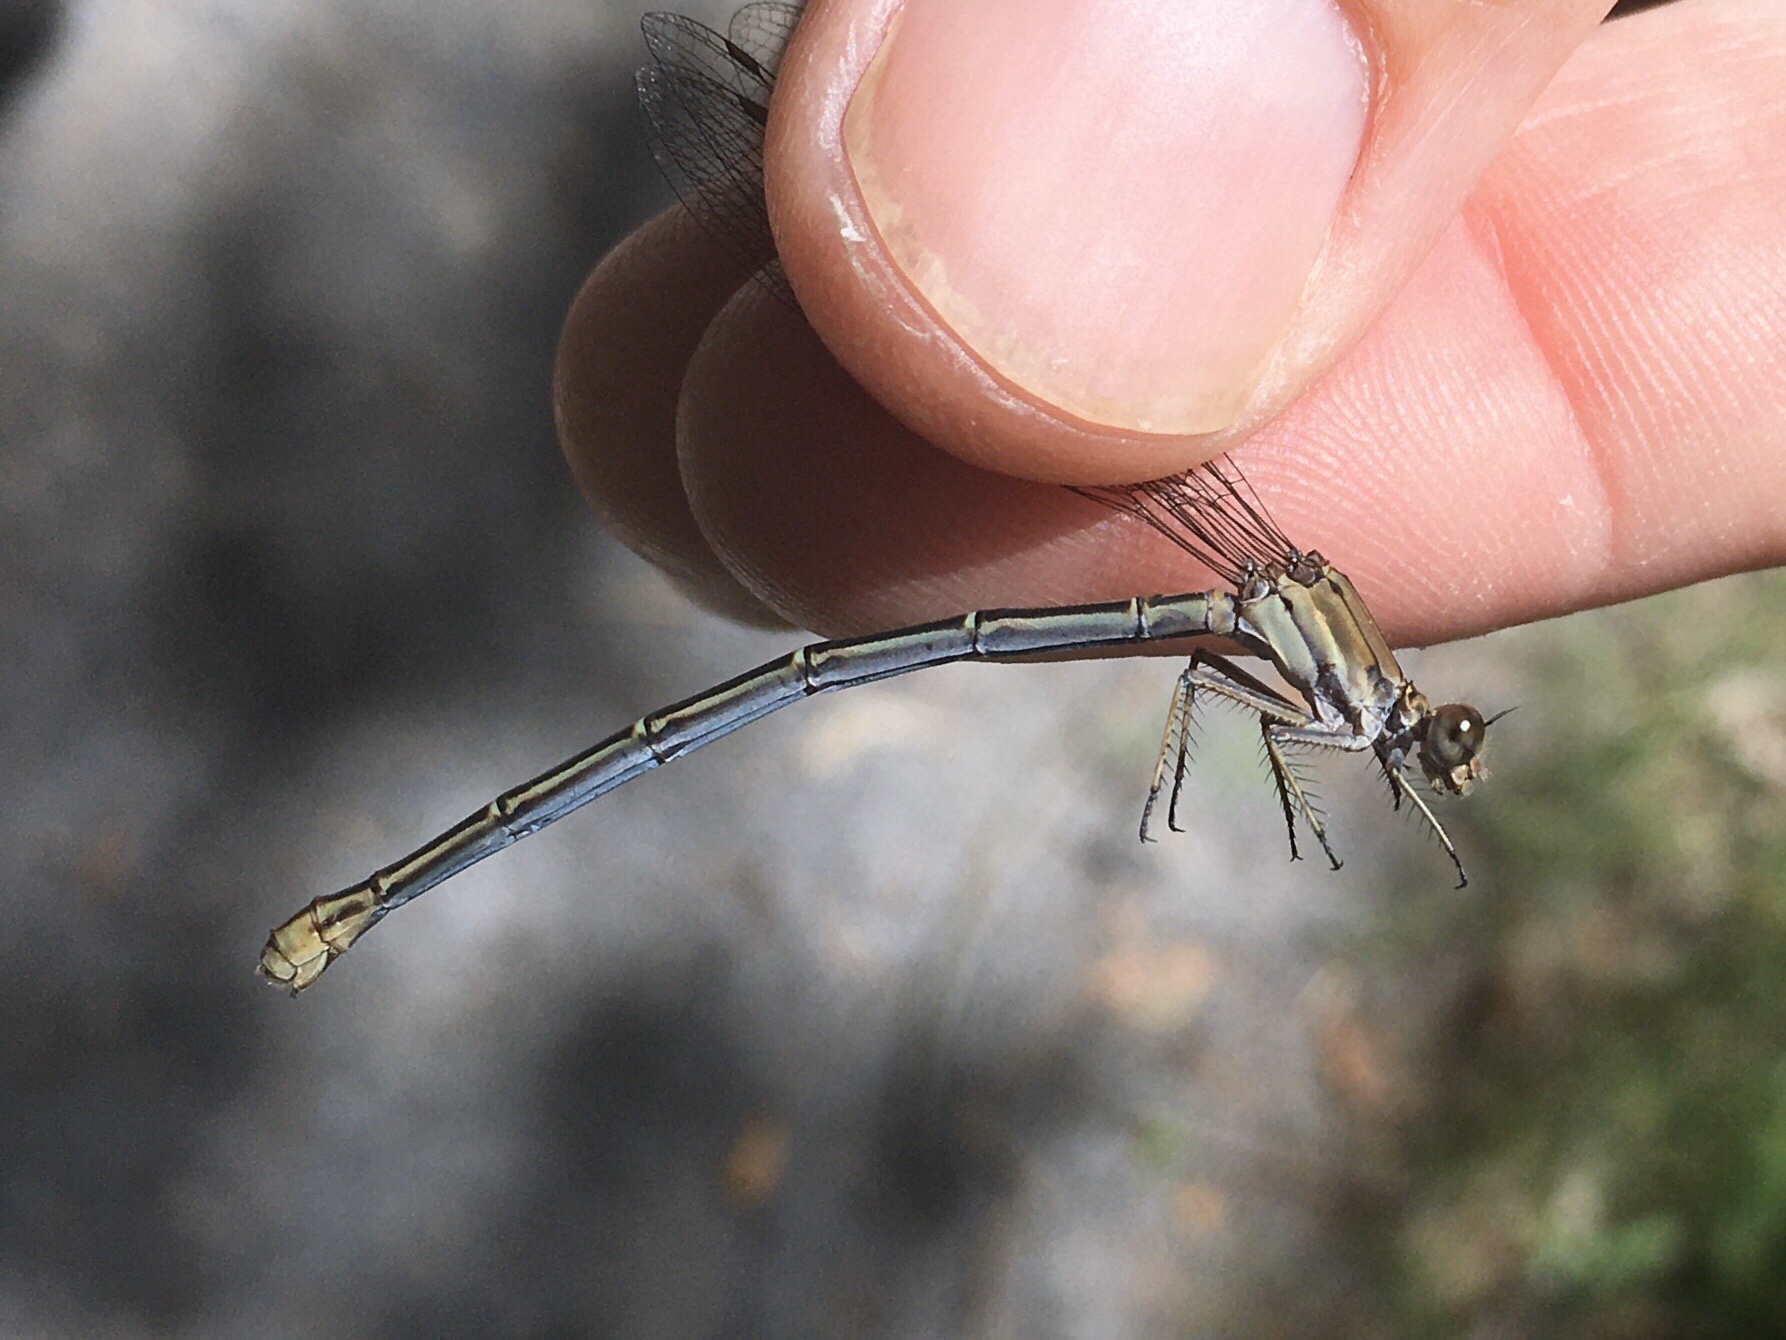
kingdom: Animalia
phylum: Arthropoda
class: Insecta
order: Odonata
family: Coenagrionidae
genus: Argia
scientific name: Argia moesta
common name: Powdered dancer
